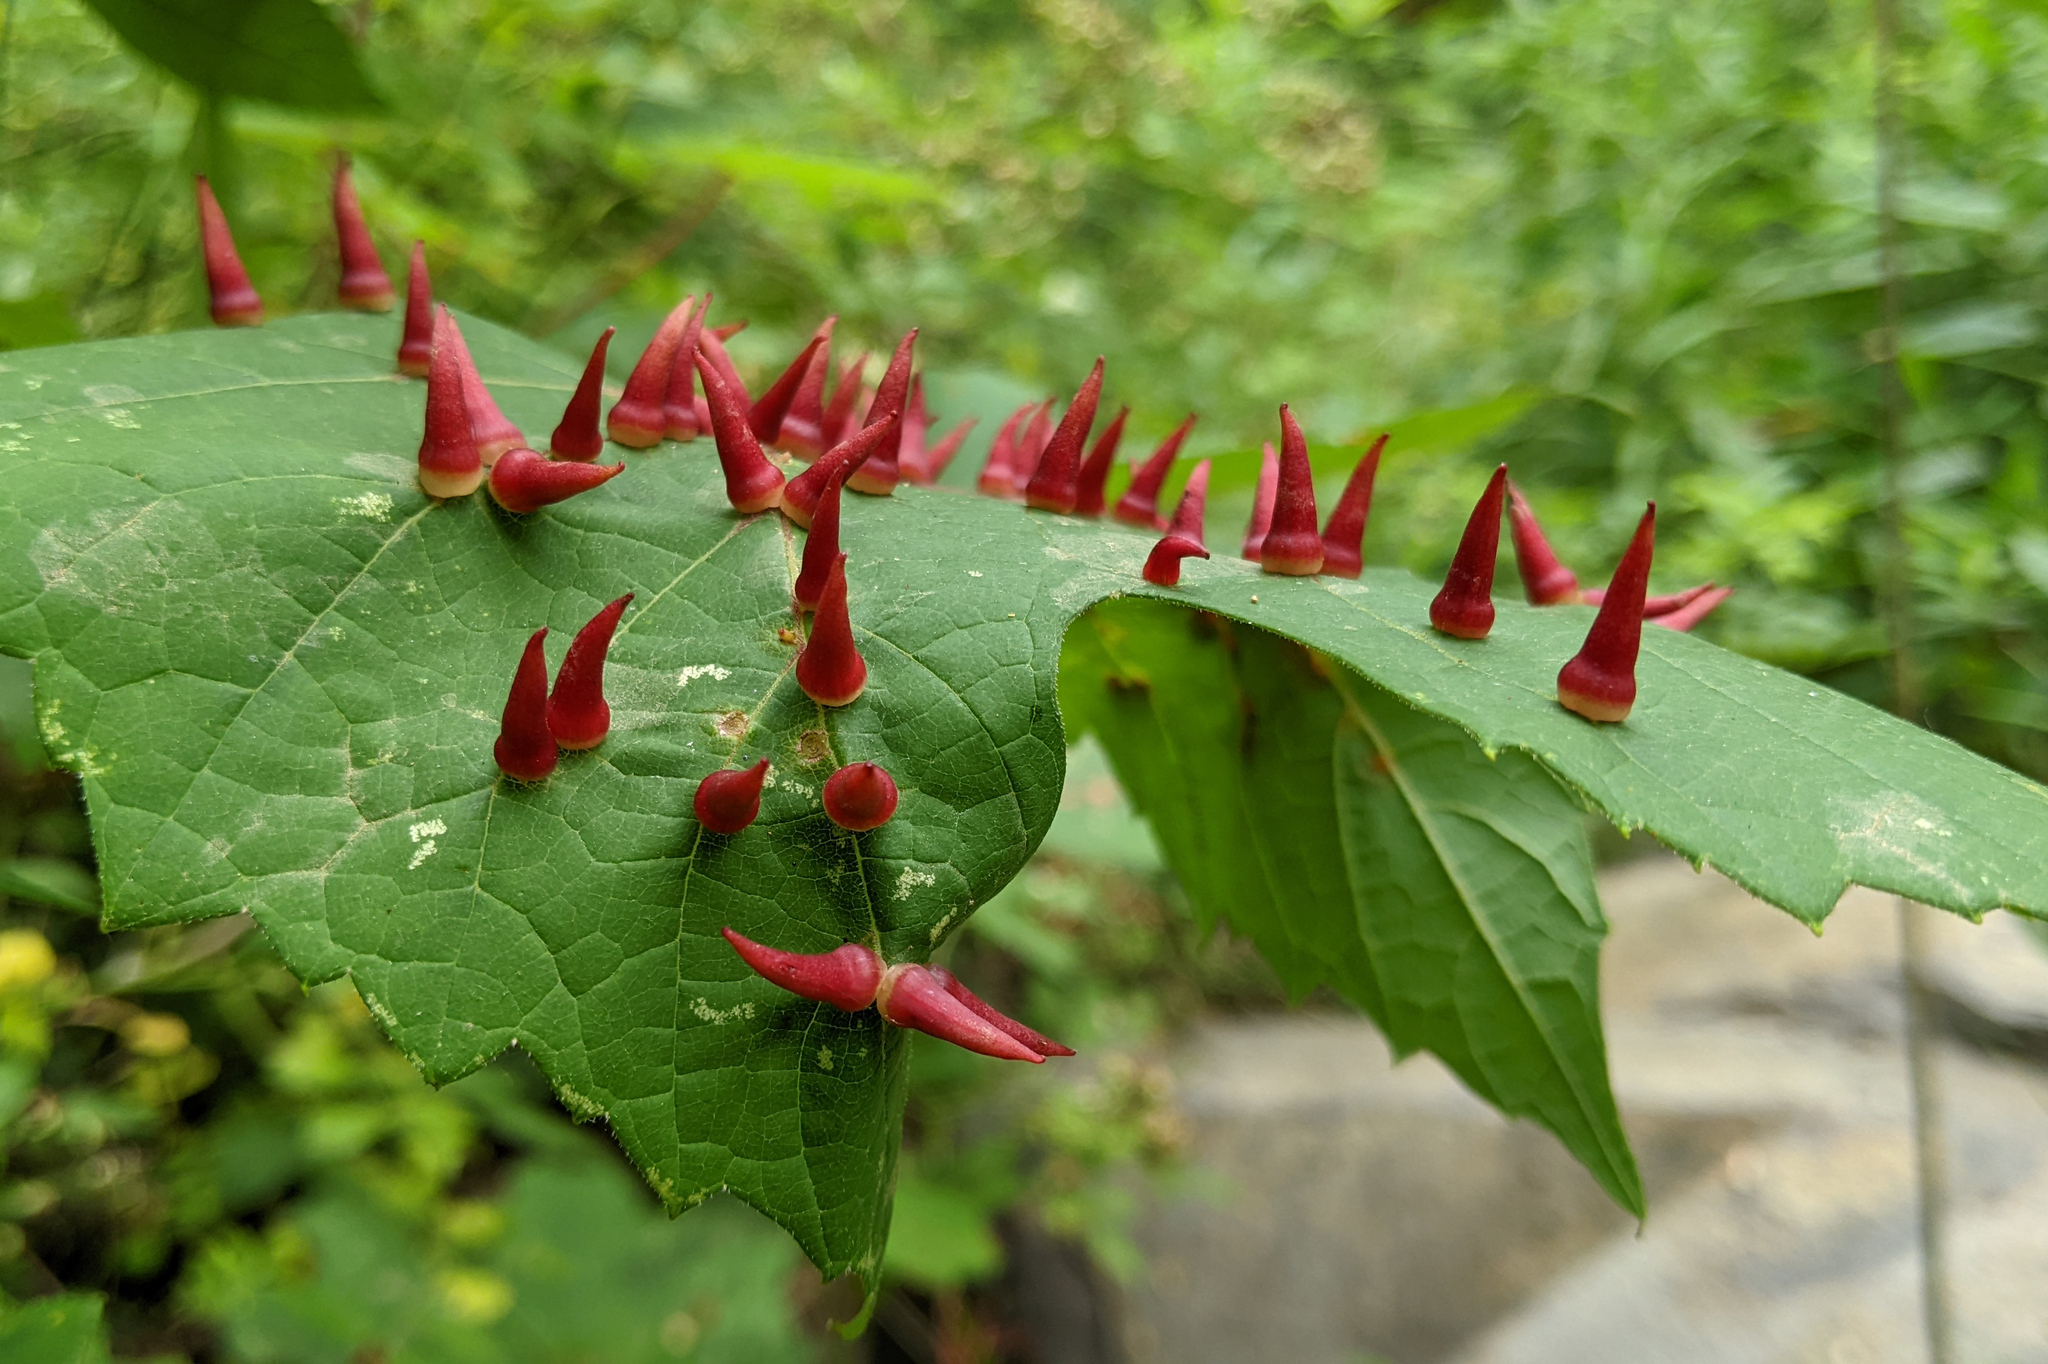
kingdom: Animalia
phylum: Arthropoda
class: Insecta
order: Diptera
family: Cecidomyiidae
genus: Ampelomyia
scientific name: Ampelomyia viticola
